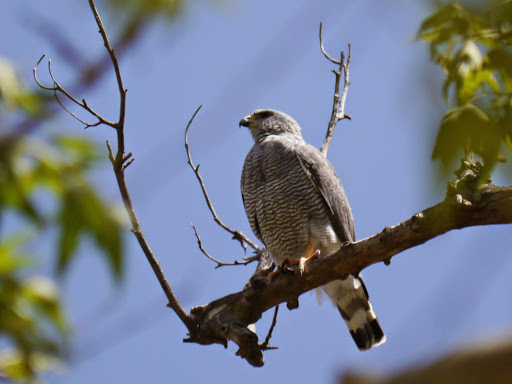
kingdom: Animalia
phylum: Chordata
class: Aves
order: Accipitriformes
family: Accipitridae
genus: Buteo
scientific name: Buteo nitidus
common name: Grey-lined hawk
